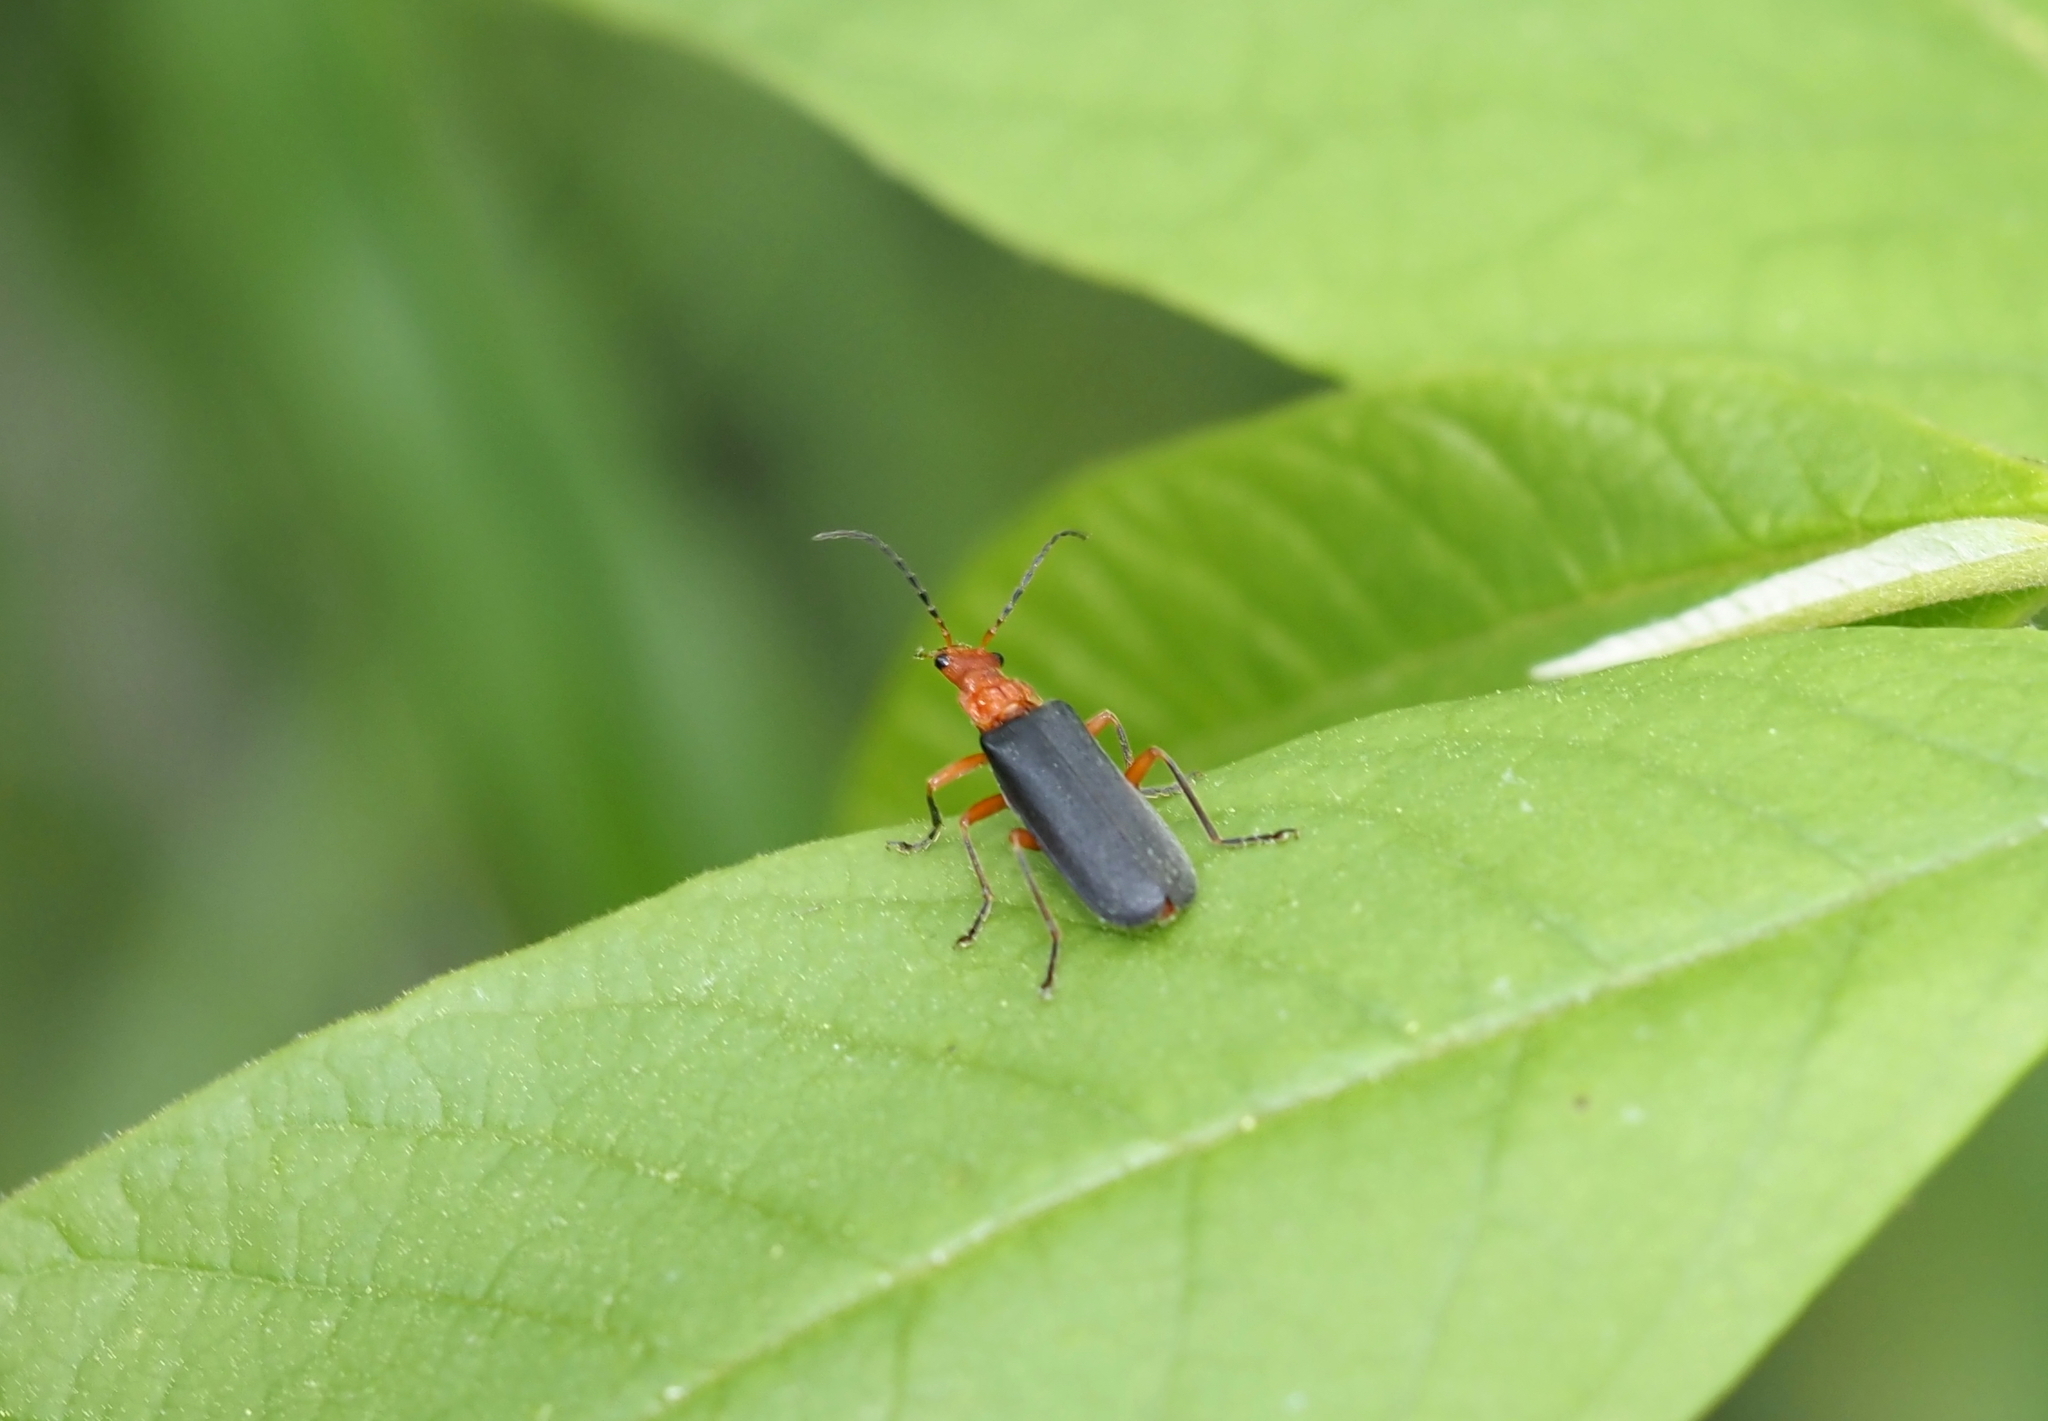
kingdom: Animalia
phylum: Arthropoda
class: Insecta
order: Coleoptera
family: Cantharidae
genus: Podabrus
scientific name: Podabrus tomentosus
